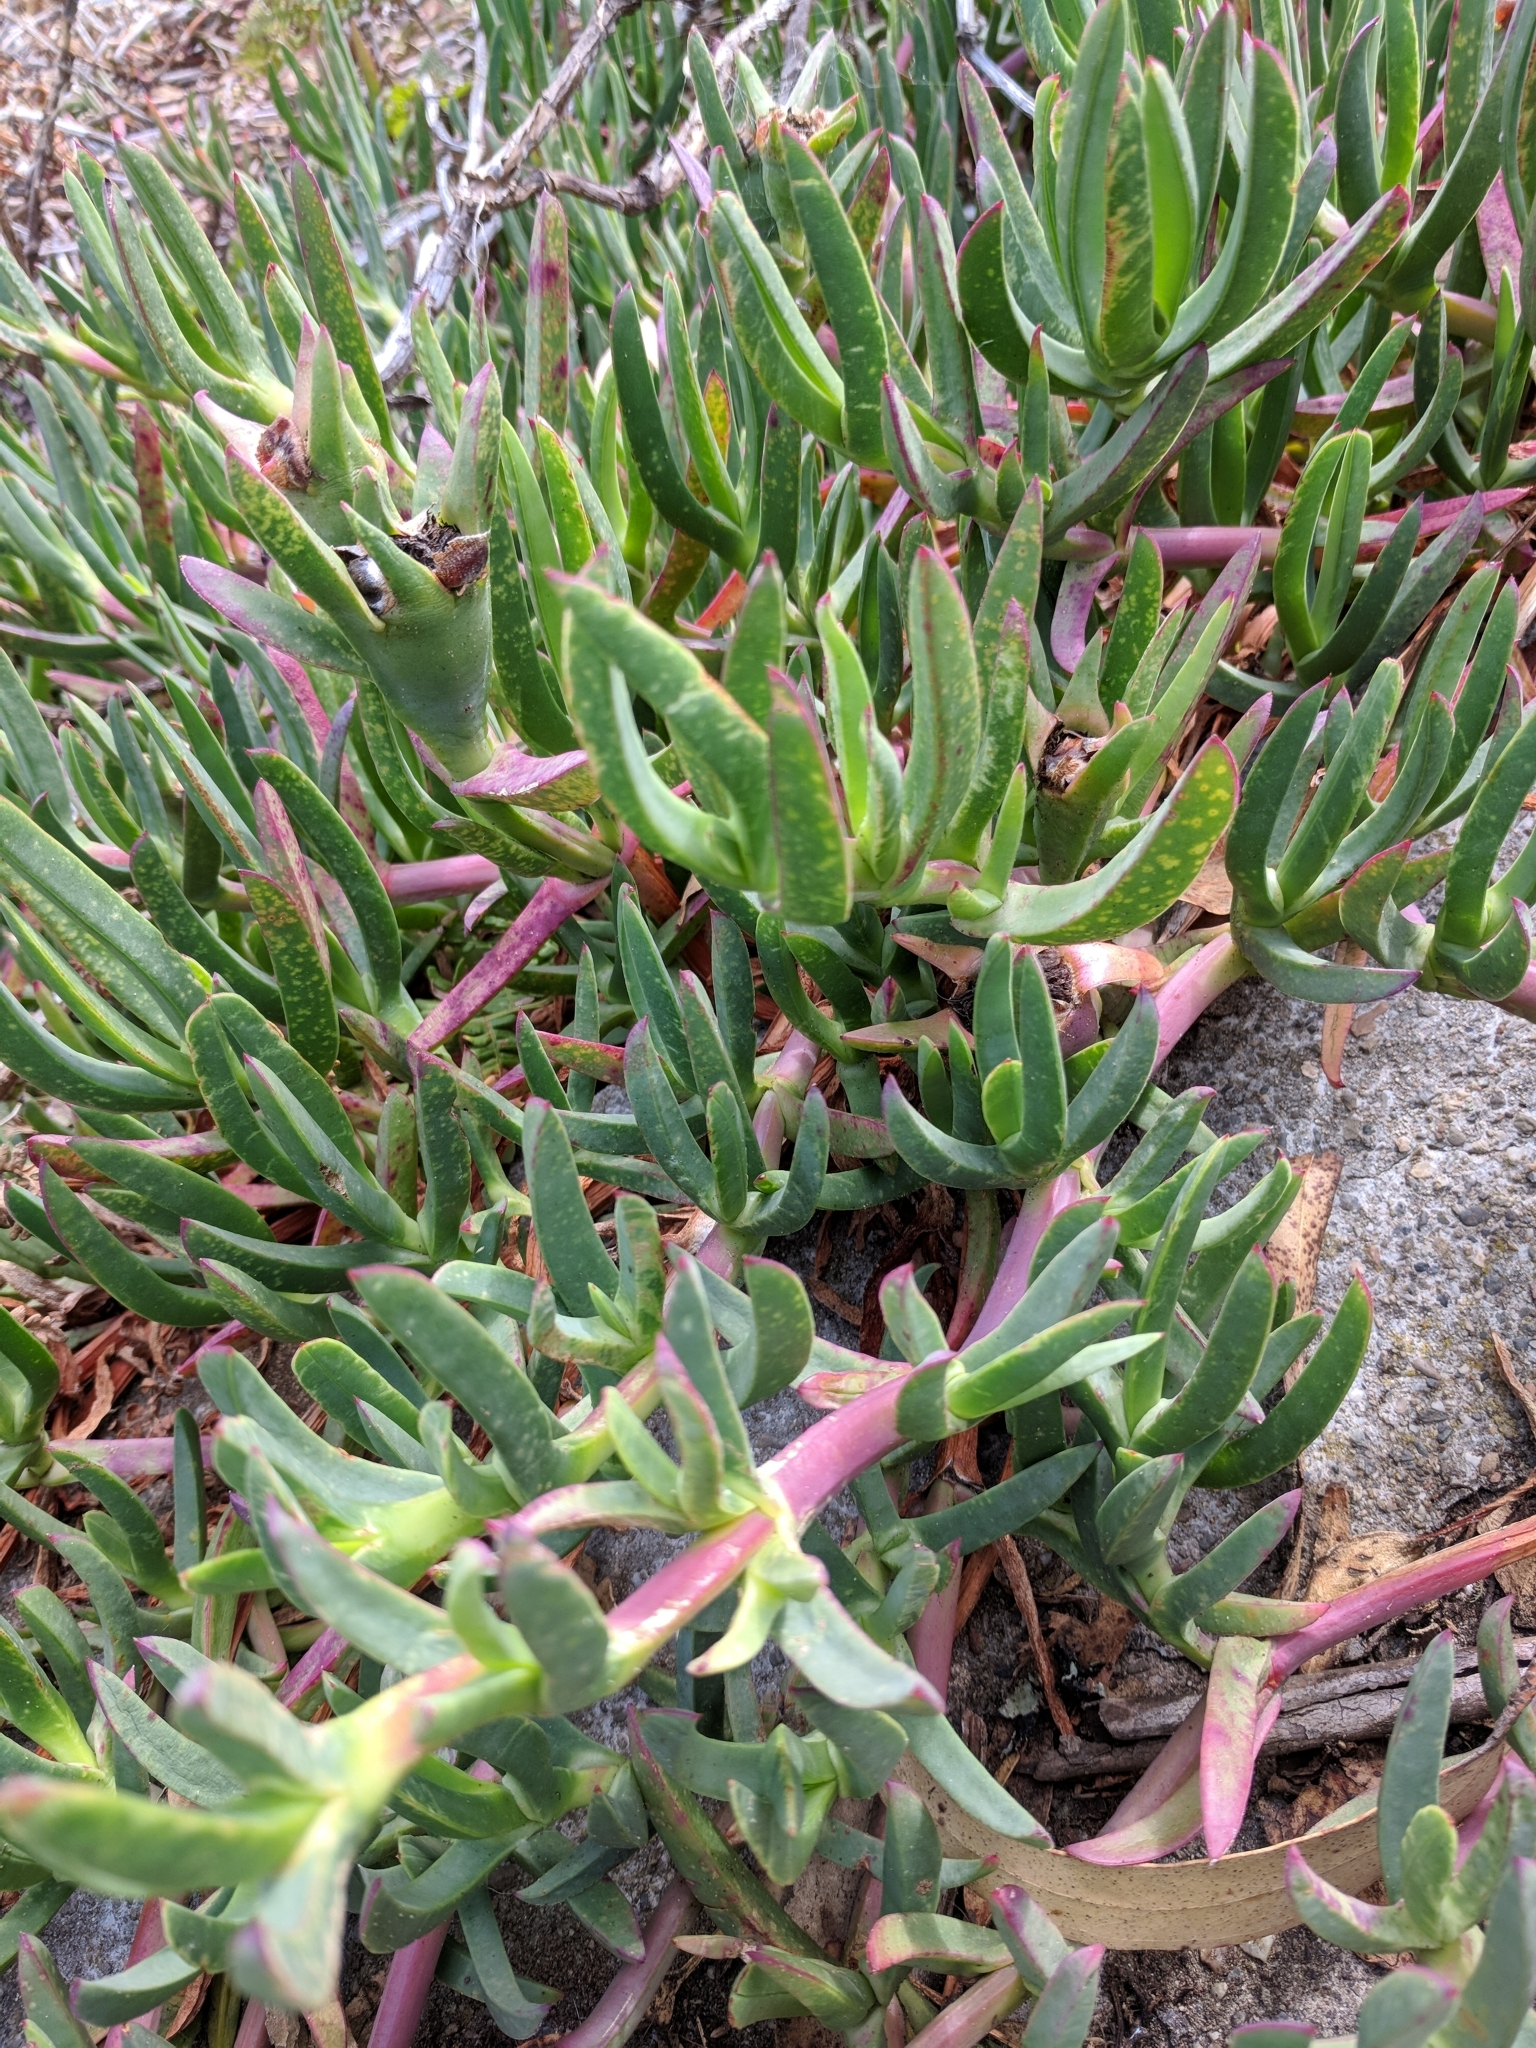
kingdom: Plantae
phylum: Tracheophyta
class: Magnoliopsida
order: Caryophyllales
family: Aizoaceae
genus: Carpobrotus
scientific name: Carpobrotus edulis
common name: Hottentot-fig
